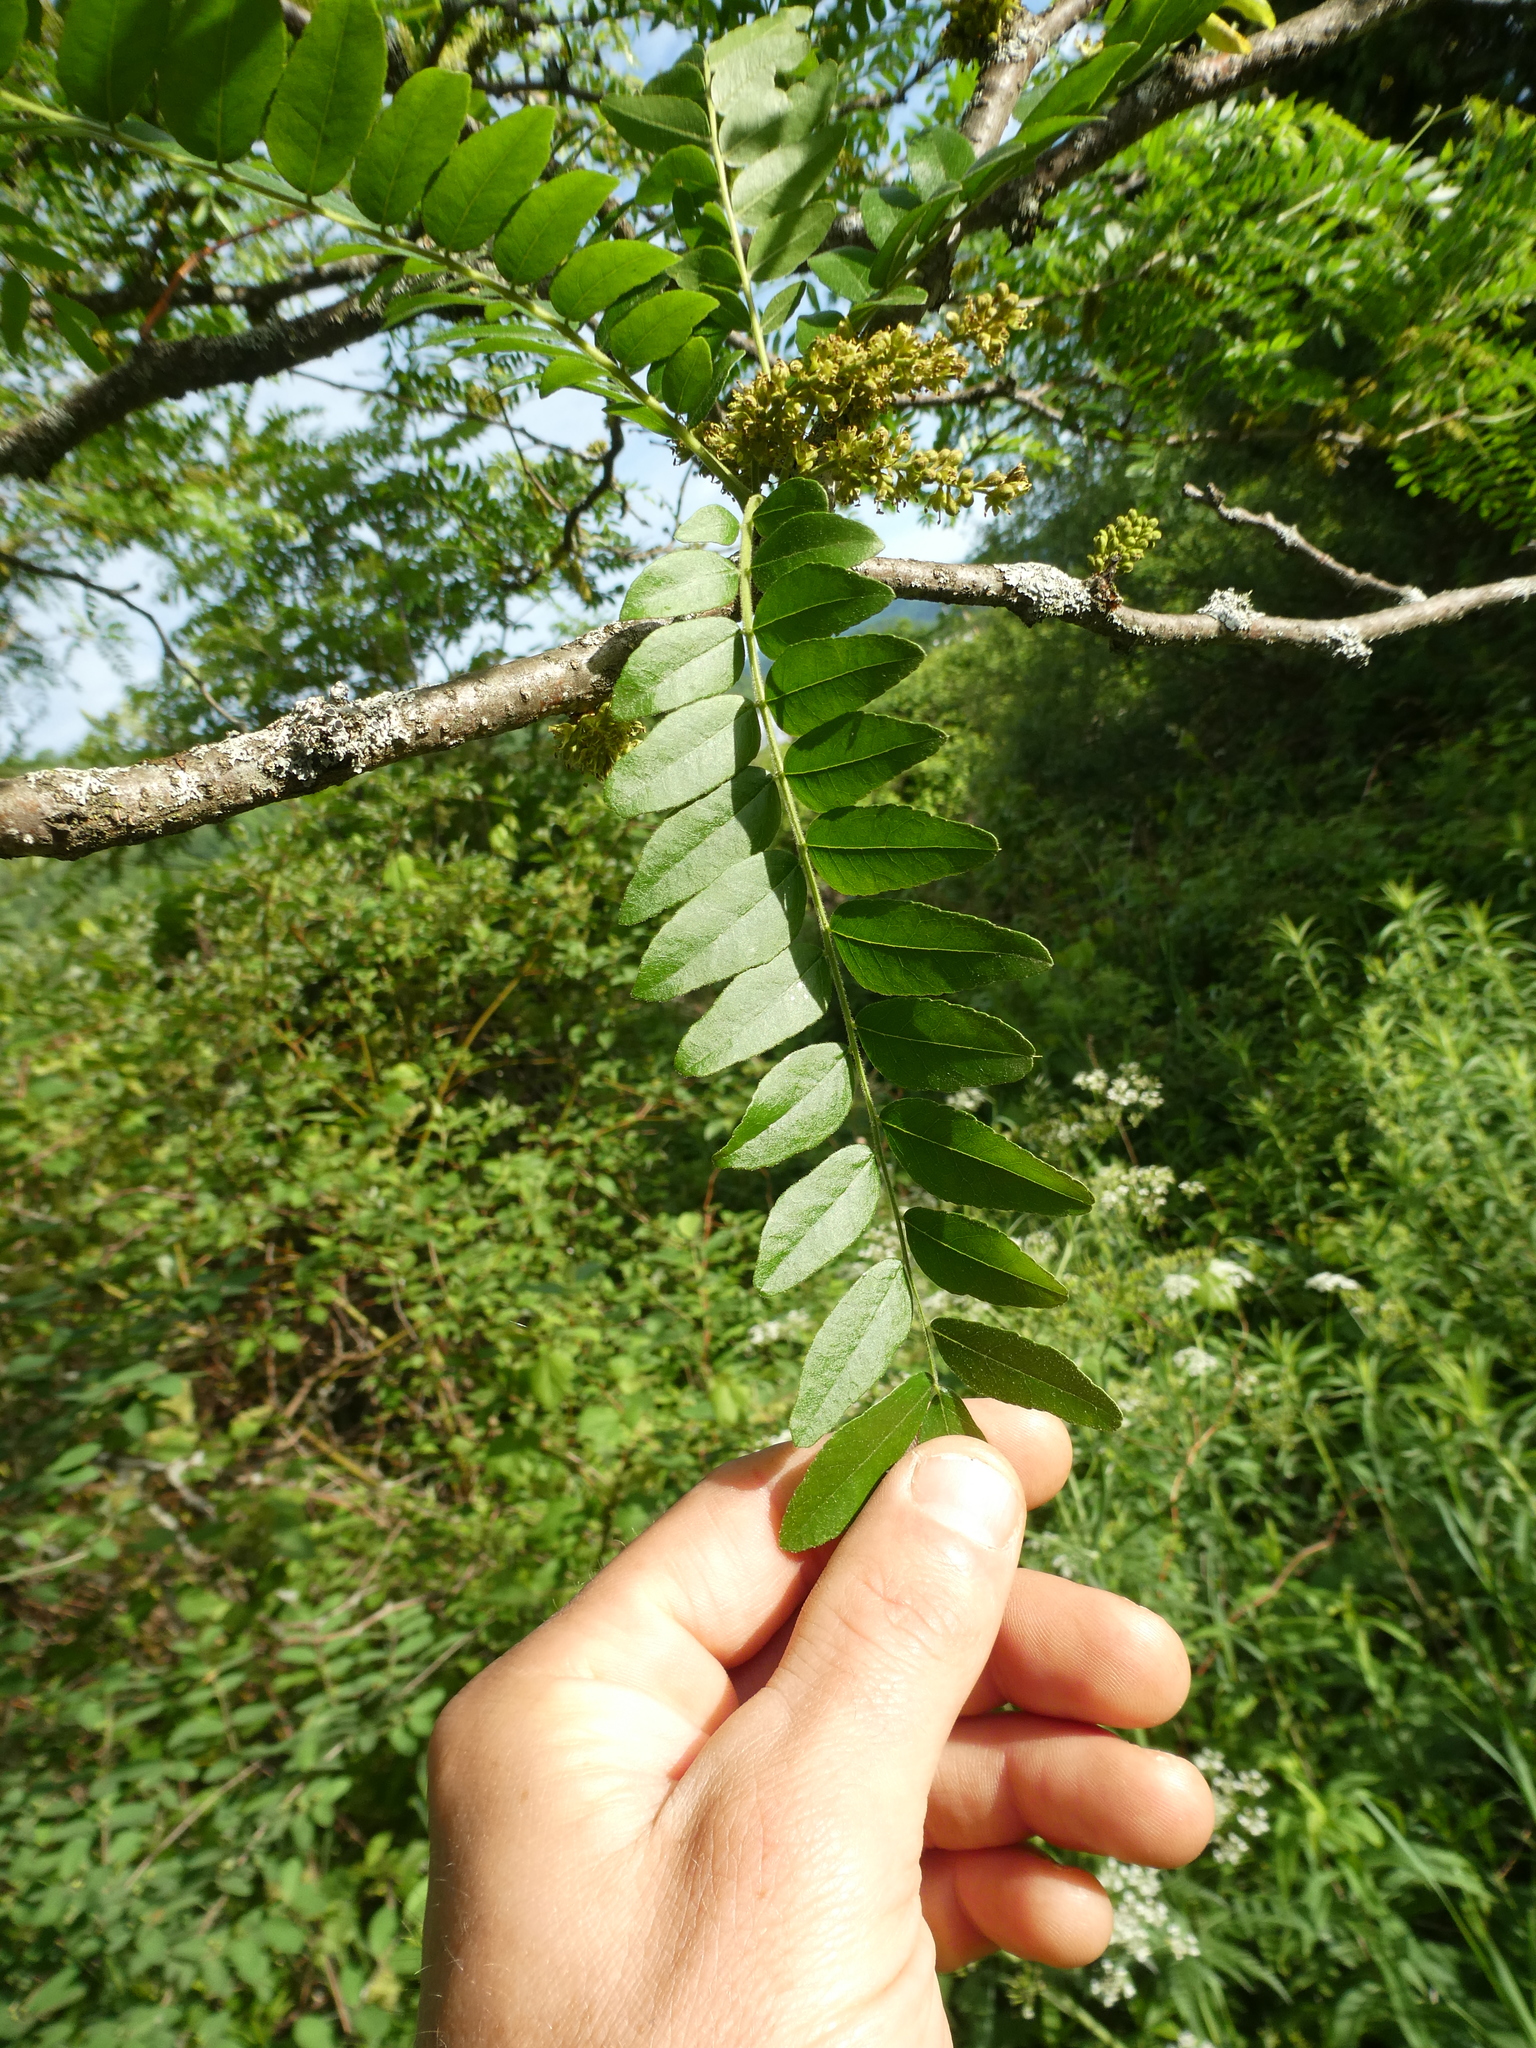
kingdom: Plantae
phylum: Tracheophyta
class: Magnoliopsida
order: Fabales
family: Fabaceae
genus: Gleditsia
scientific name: Gleditsia triacanthos
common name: Common honeylocust
